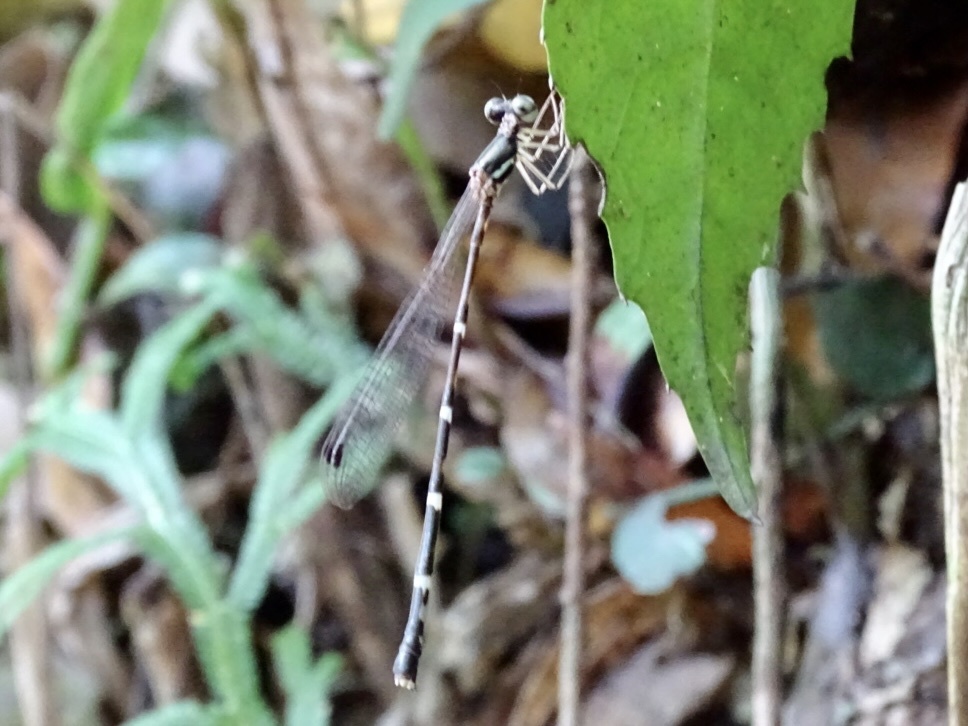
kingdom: Animalia
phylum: Arthropoda
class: Insecta
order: Odonata
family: Platystictidae
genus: Protosticta
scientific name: Protosticta taipokauensis
